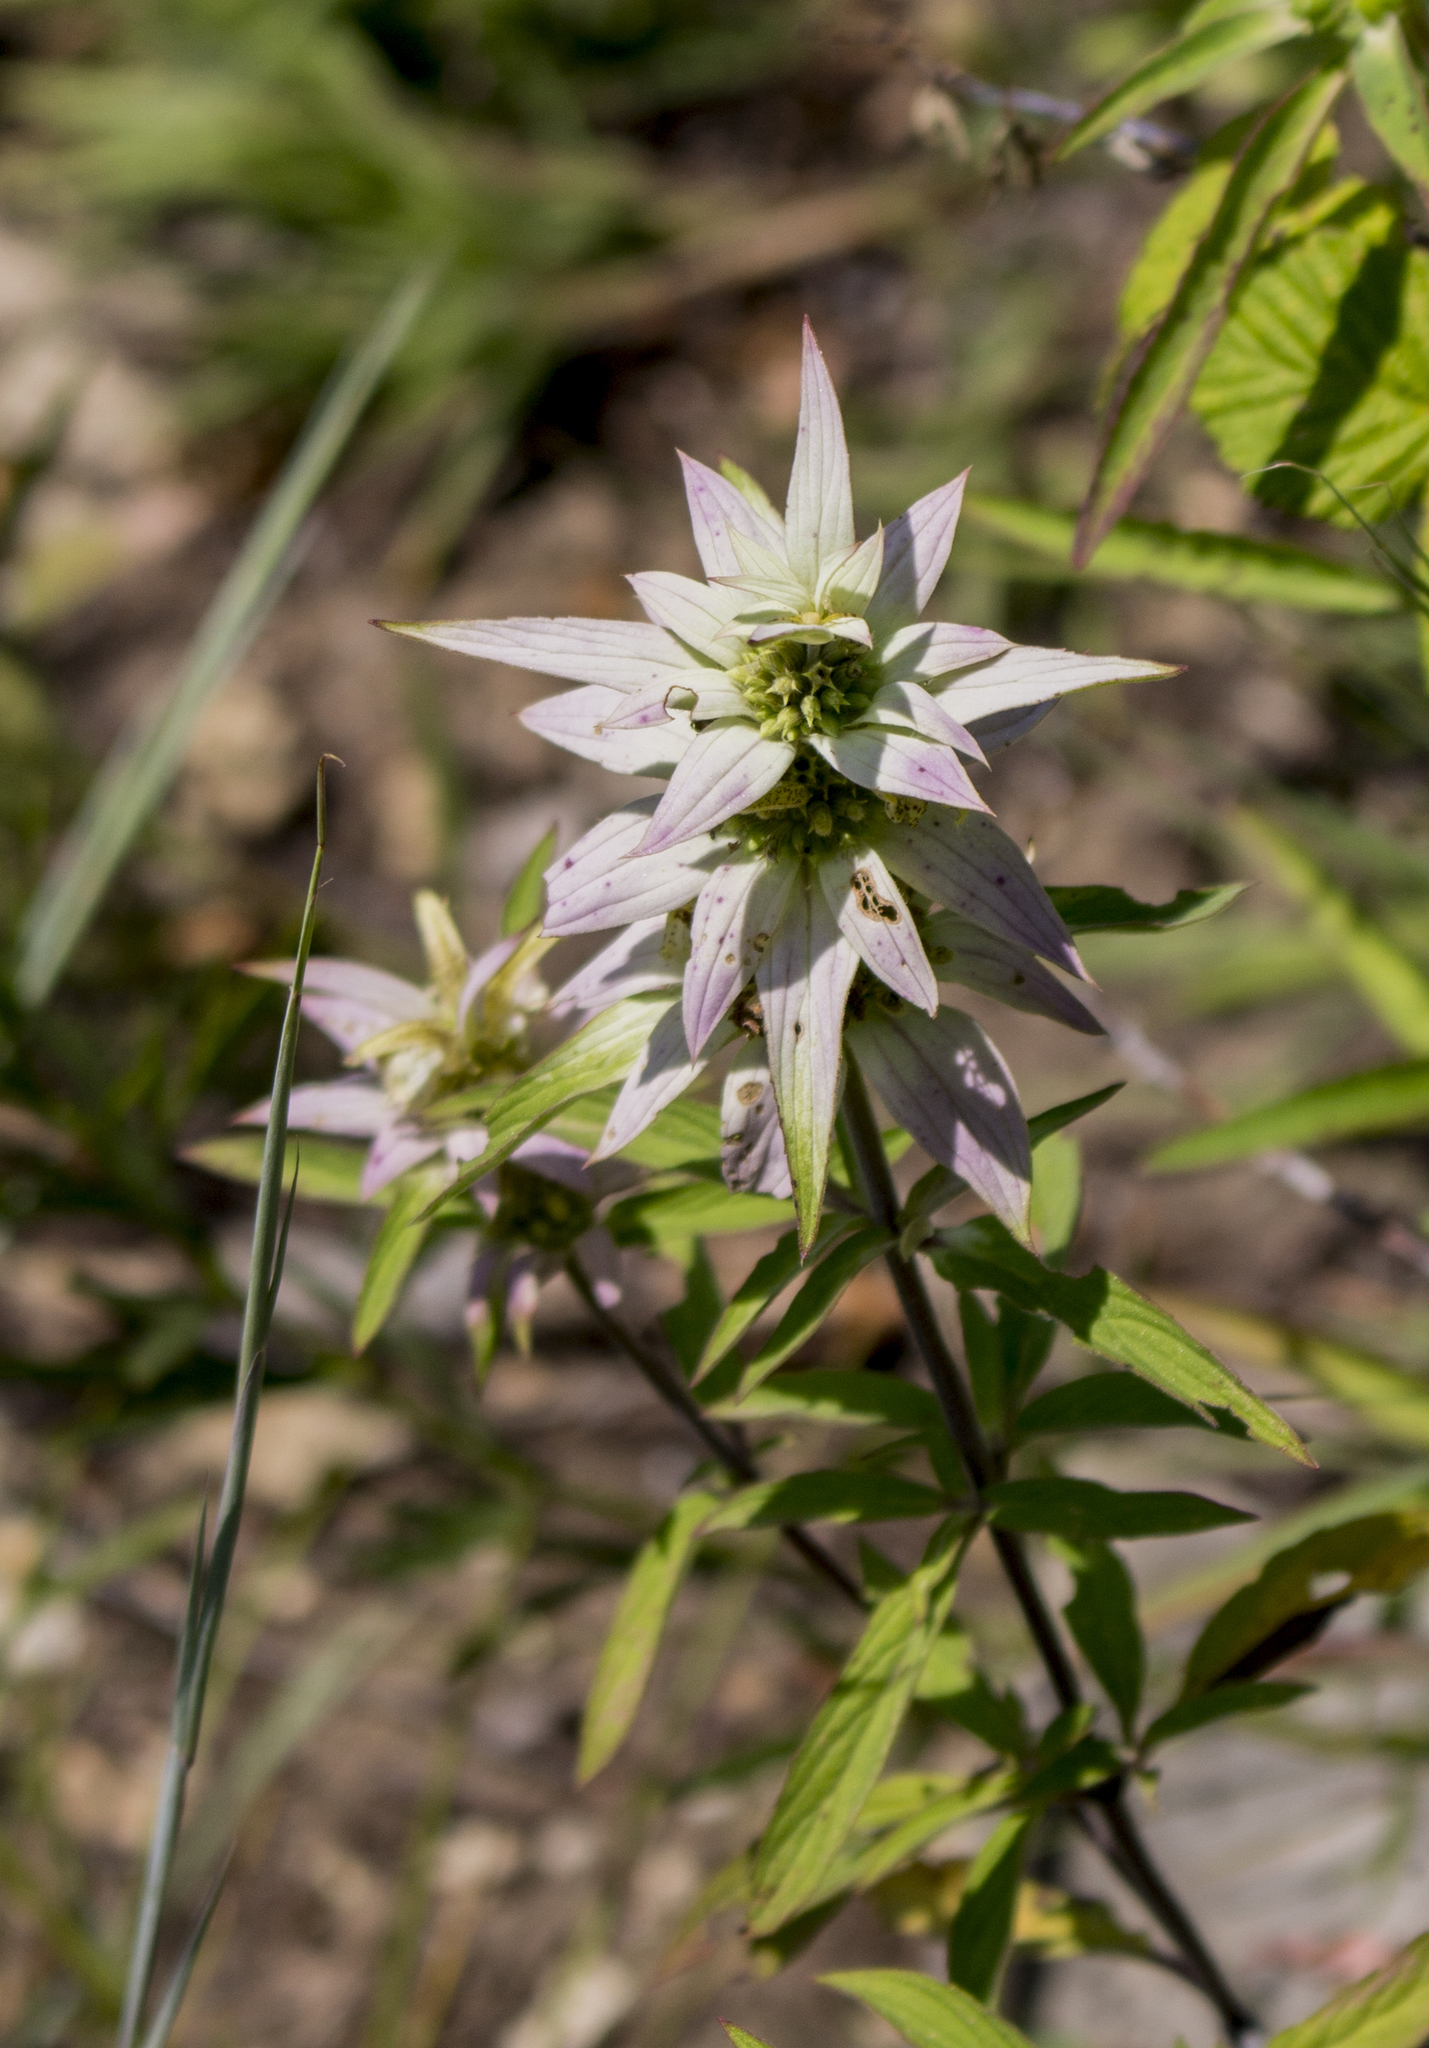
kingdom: Plantae
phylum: Tracheophyta
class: Magnoliopsida
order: Lamiales
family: Lamiaceae
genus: Monarda
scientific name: Monarda punctata
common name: Dotted monarda
